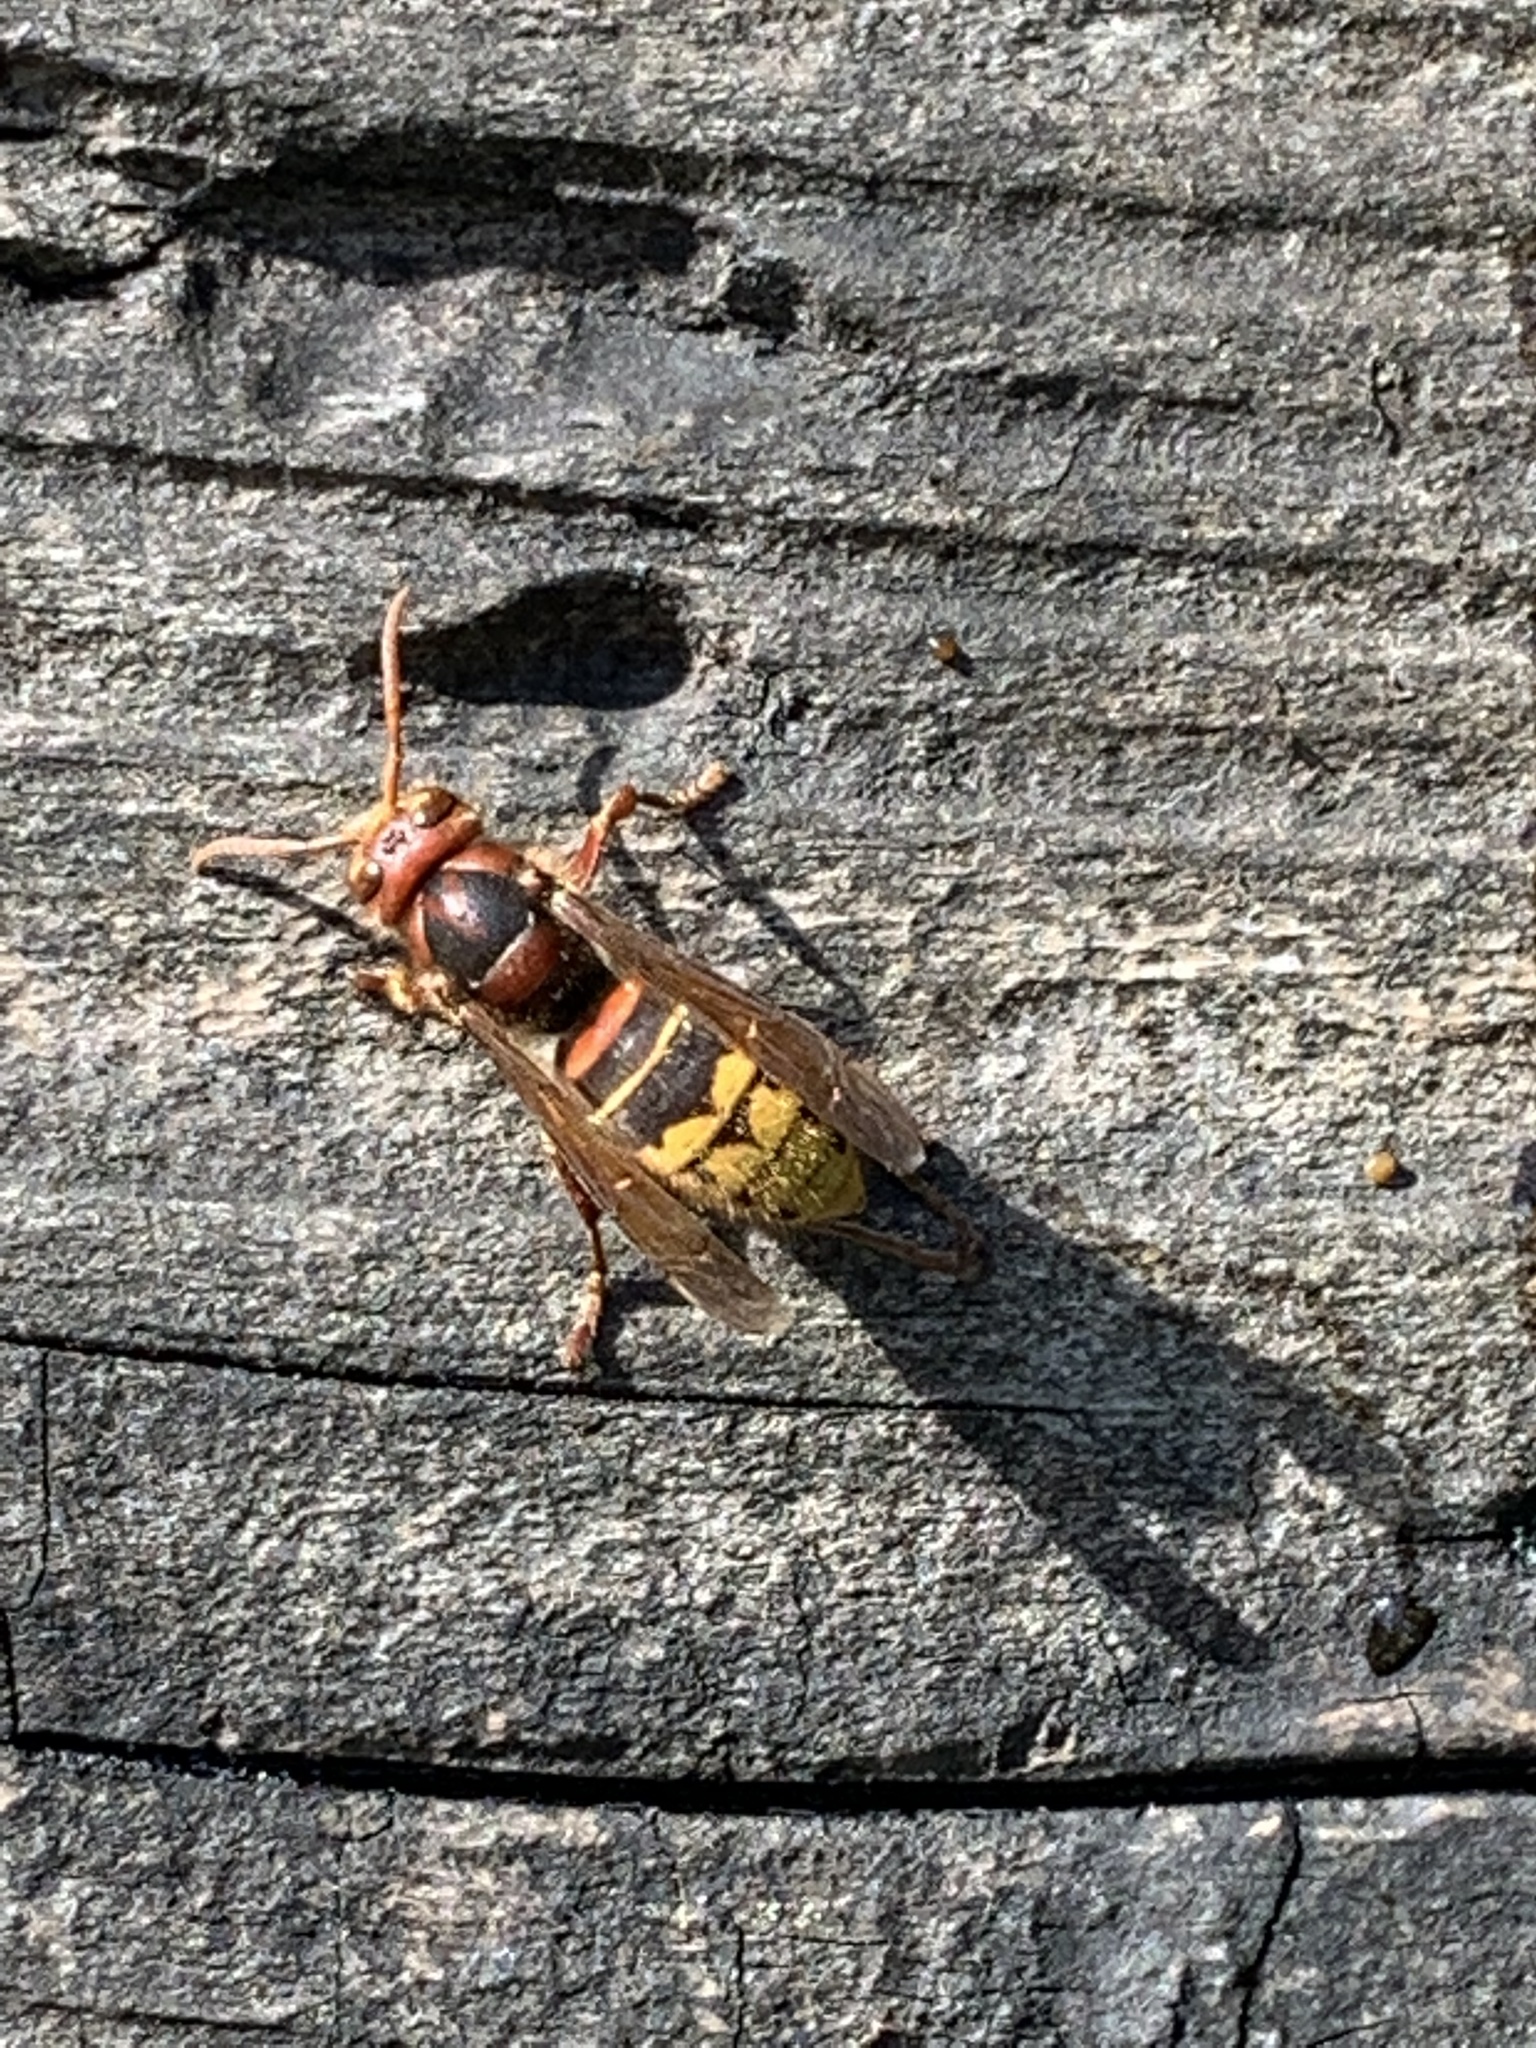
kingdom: Animalia
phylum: Arthropoda
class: Insecta
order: Hymenoptera
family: Vespidae
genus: Vespa
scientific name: Vespa crabro
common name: Hornet
